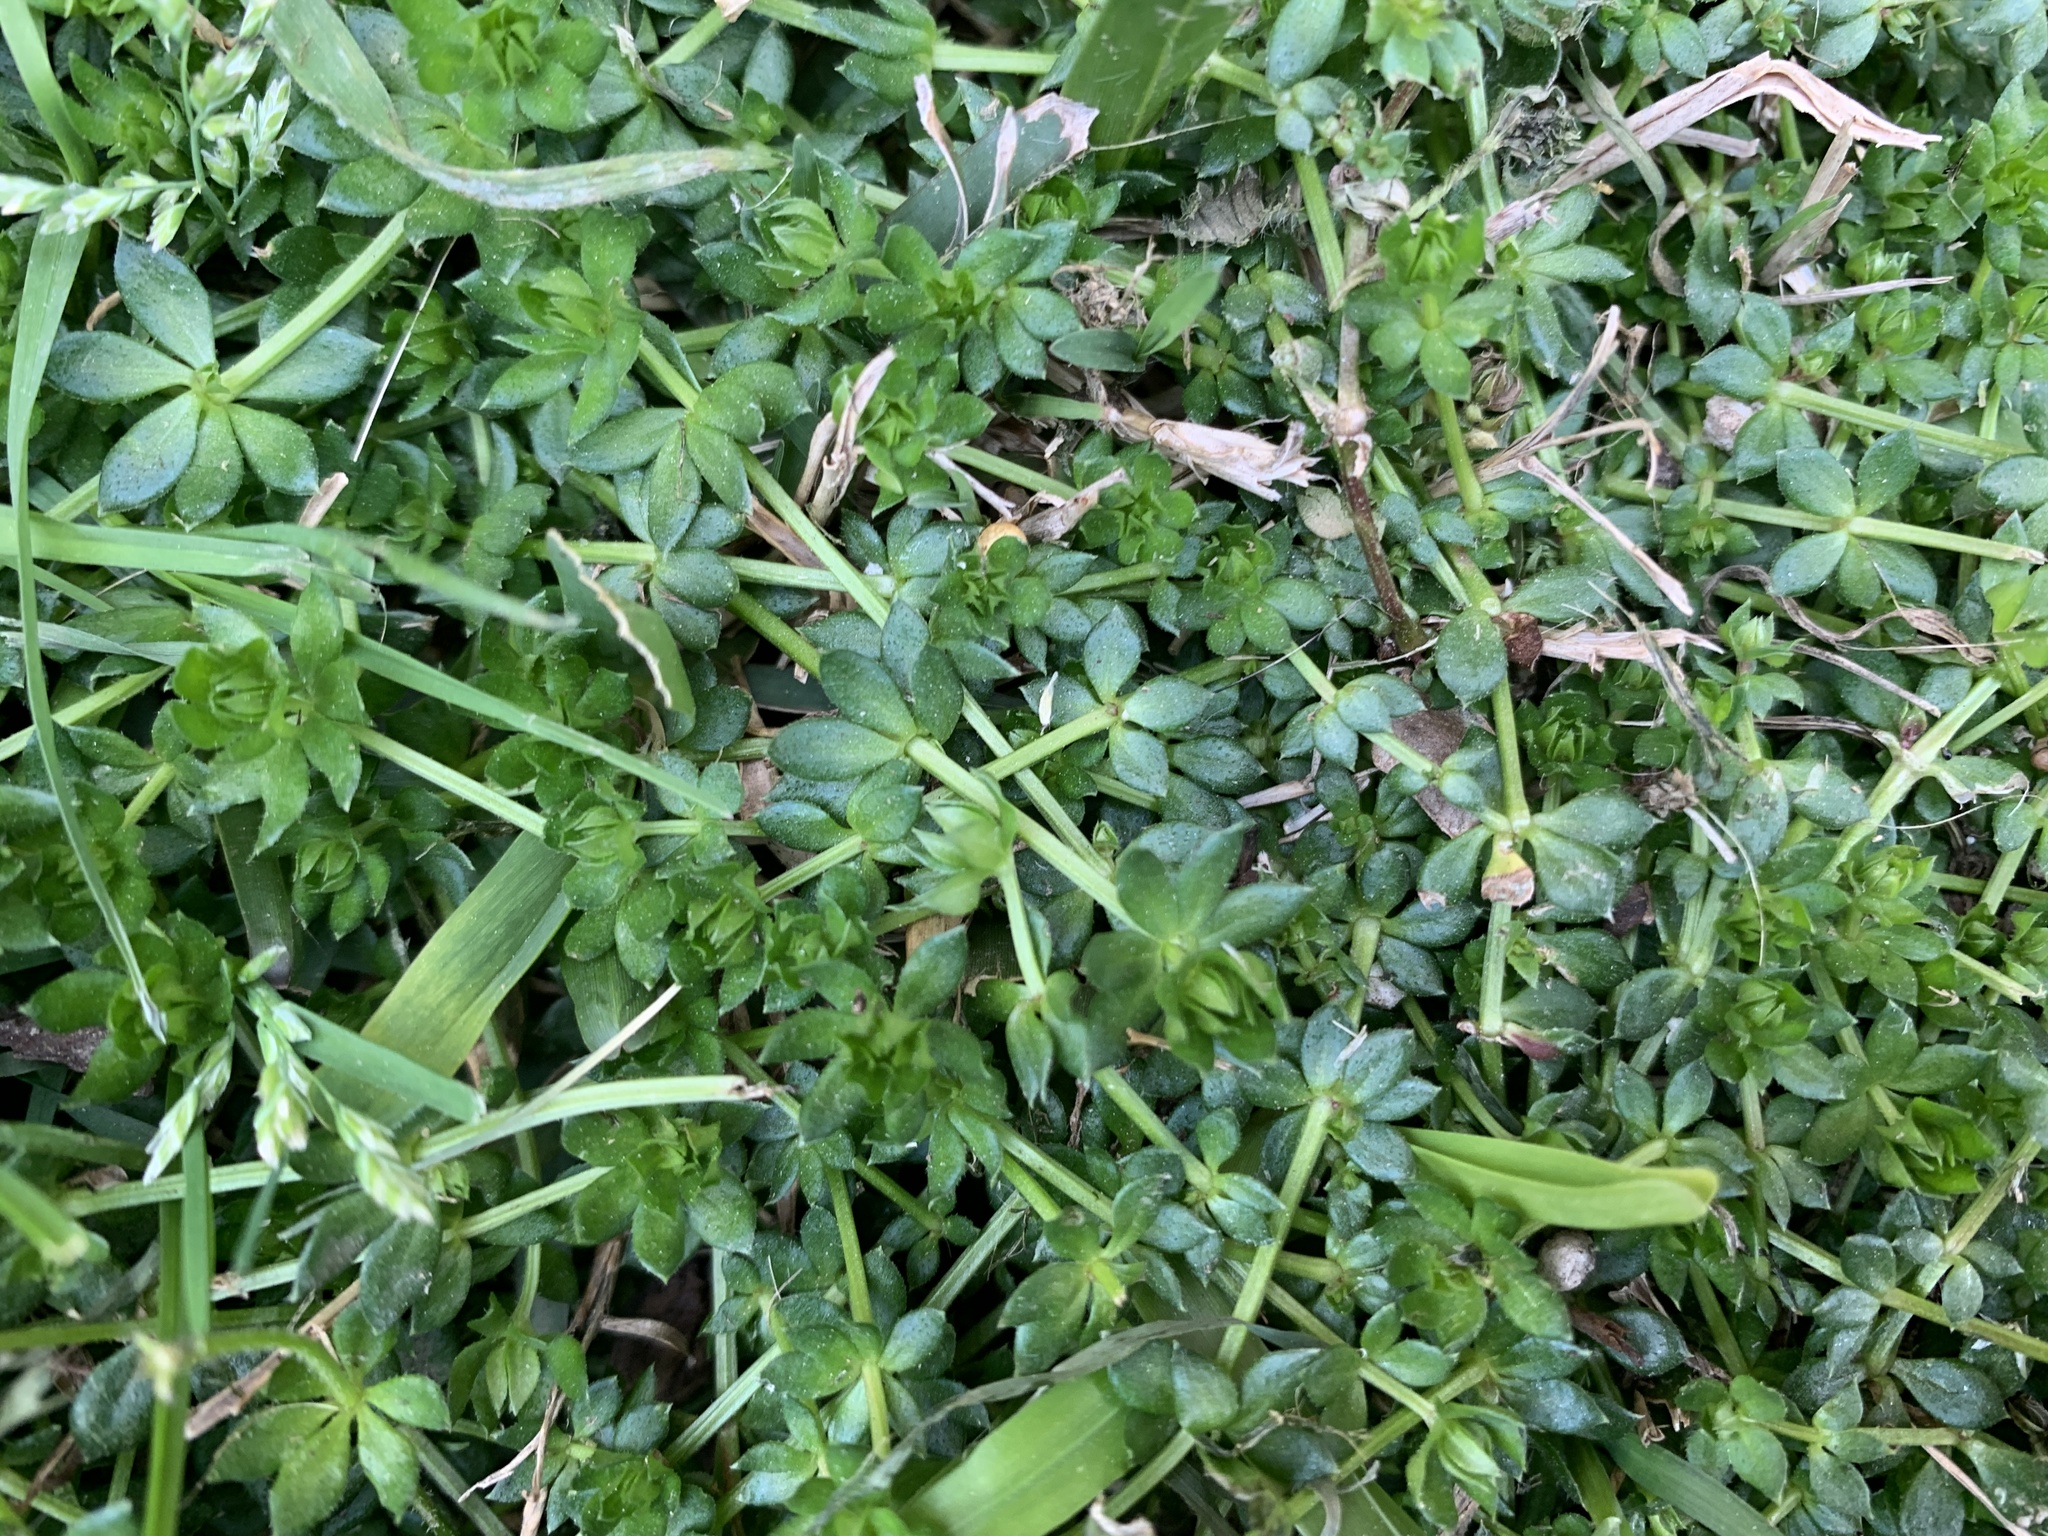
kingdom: Plantae
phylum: Tracheophyta
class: Magnoliopsida
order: Gentianales
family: Rubiaceae
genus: Sherardia
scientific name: Sherardia arvensis
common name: Field madder
